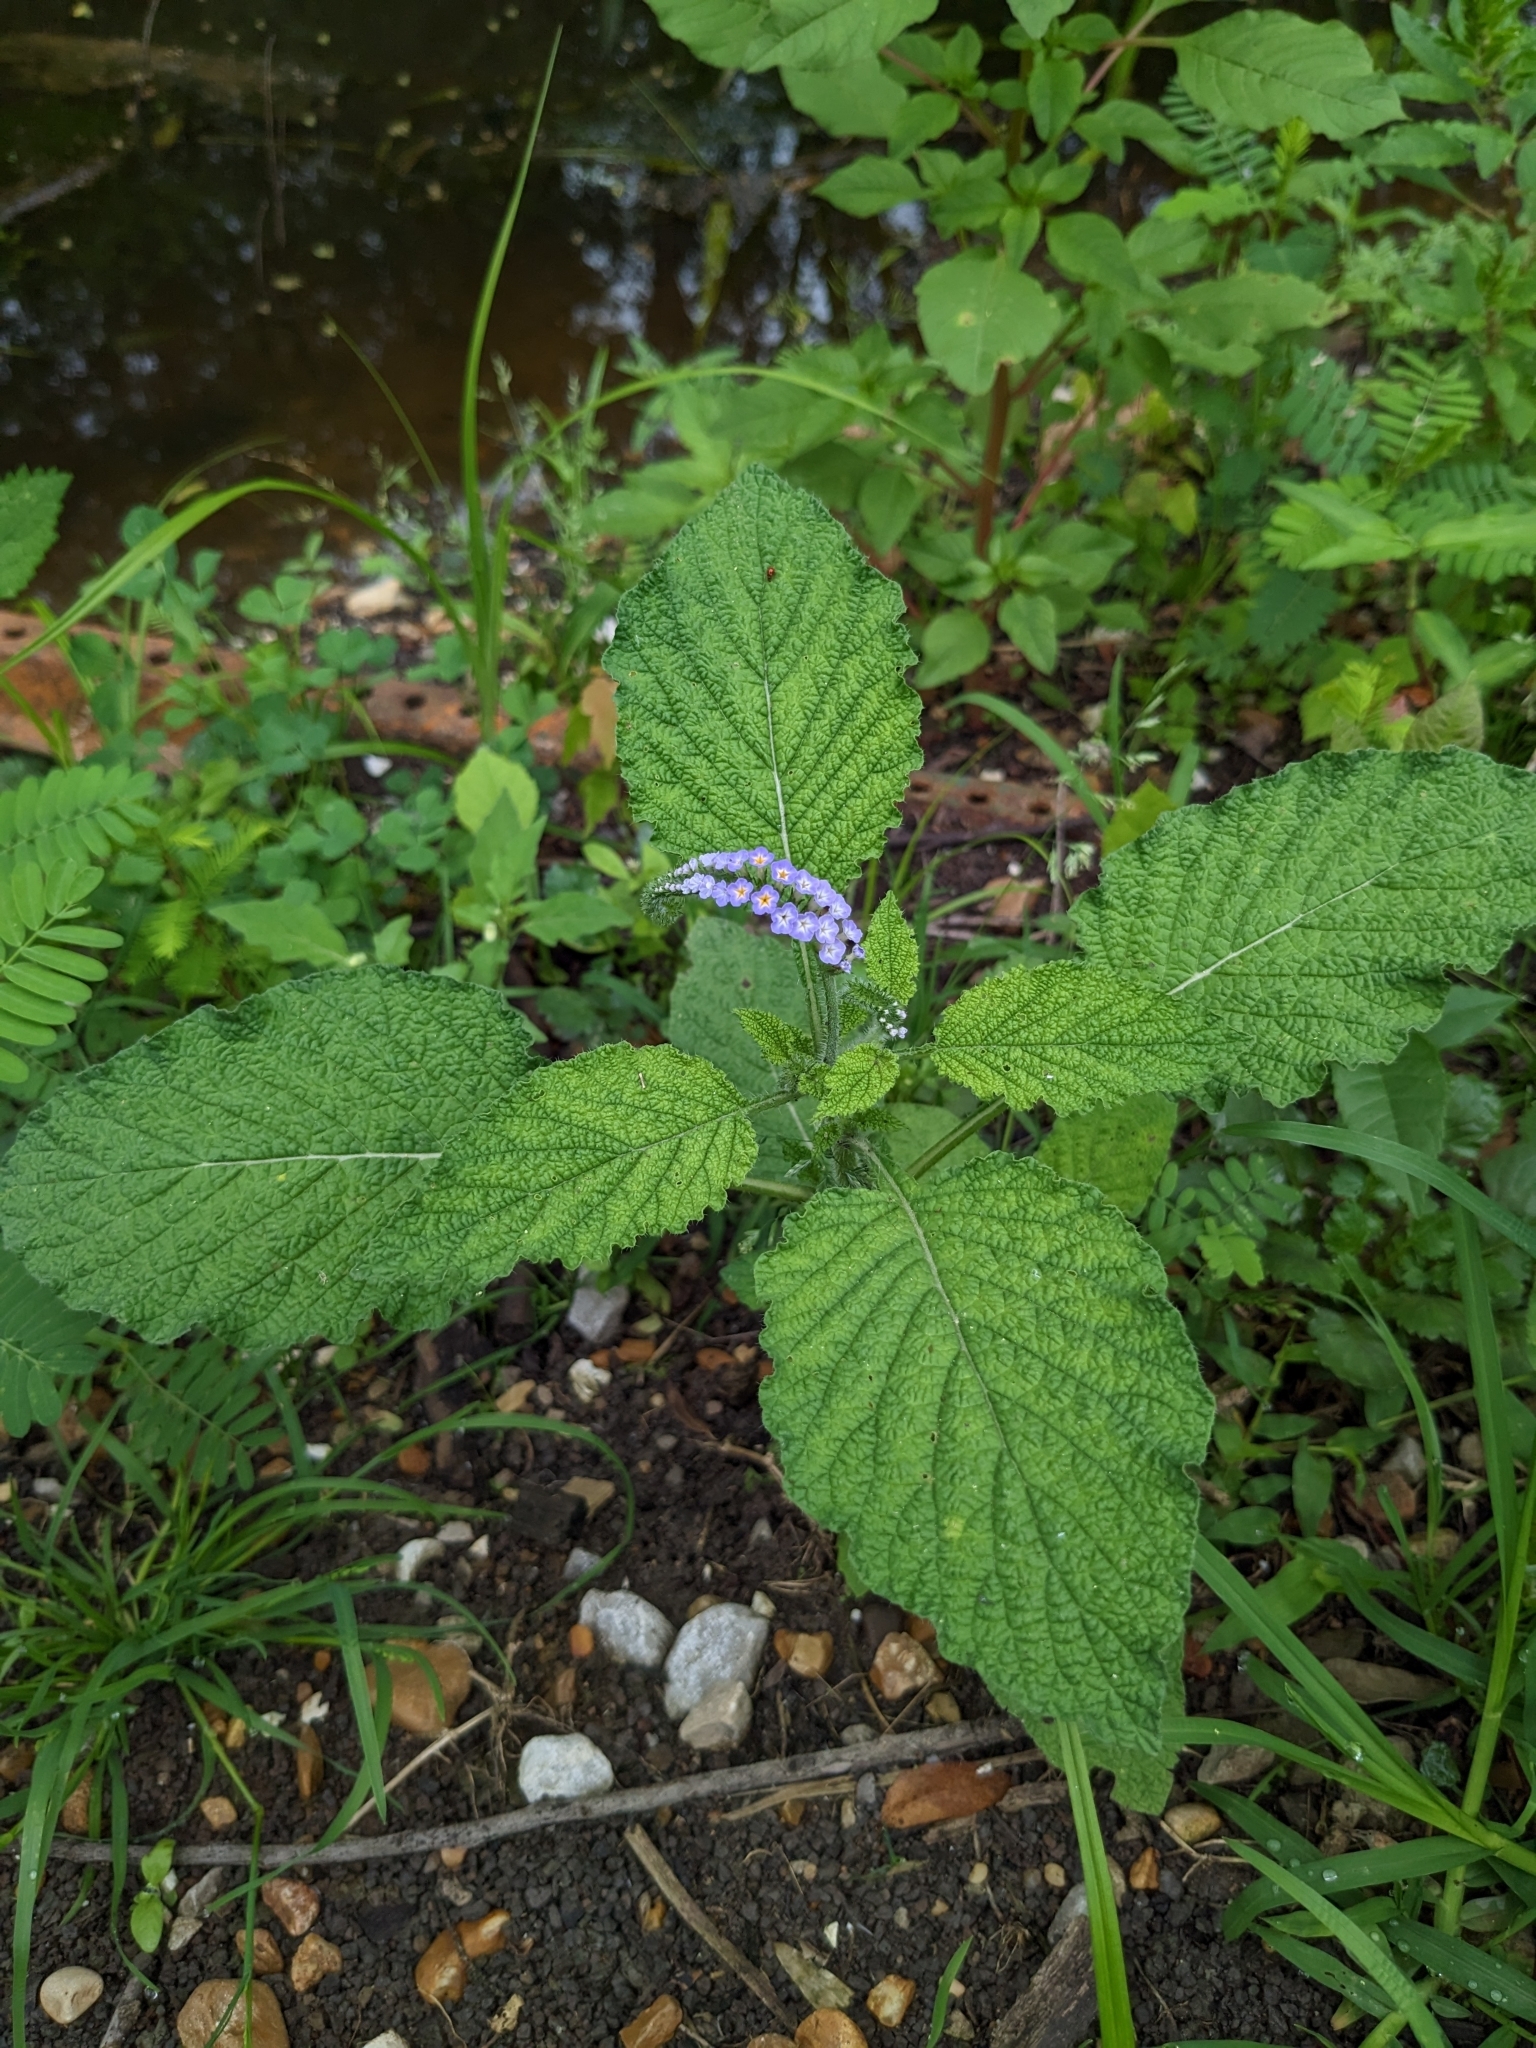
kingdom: Plantae
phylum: Tracheophyta
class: Magnoliopsida
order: Boraginales
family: Heliotropiaceae
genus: Heliotropium
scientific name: Heliotropium indicum
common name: Indian heliotrope
